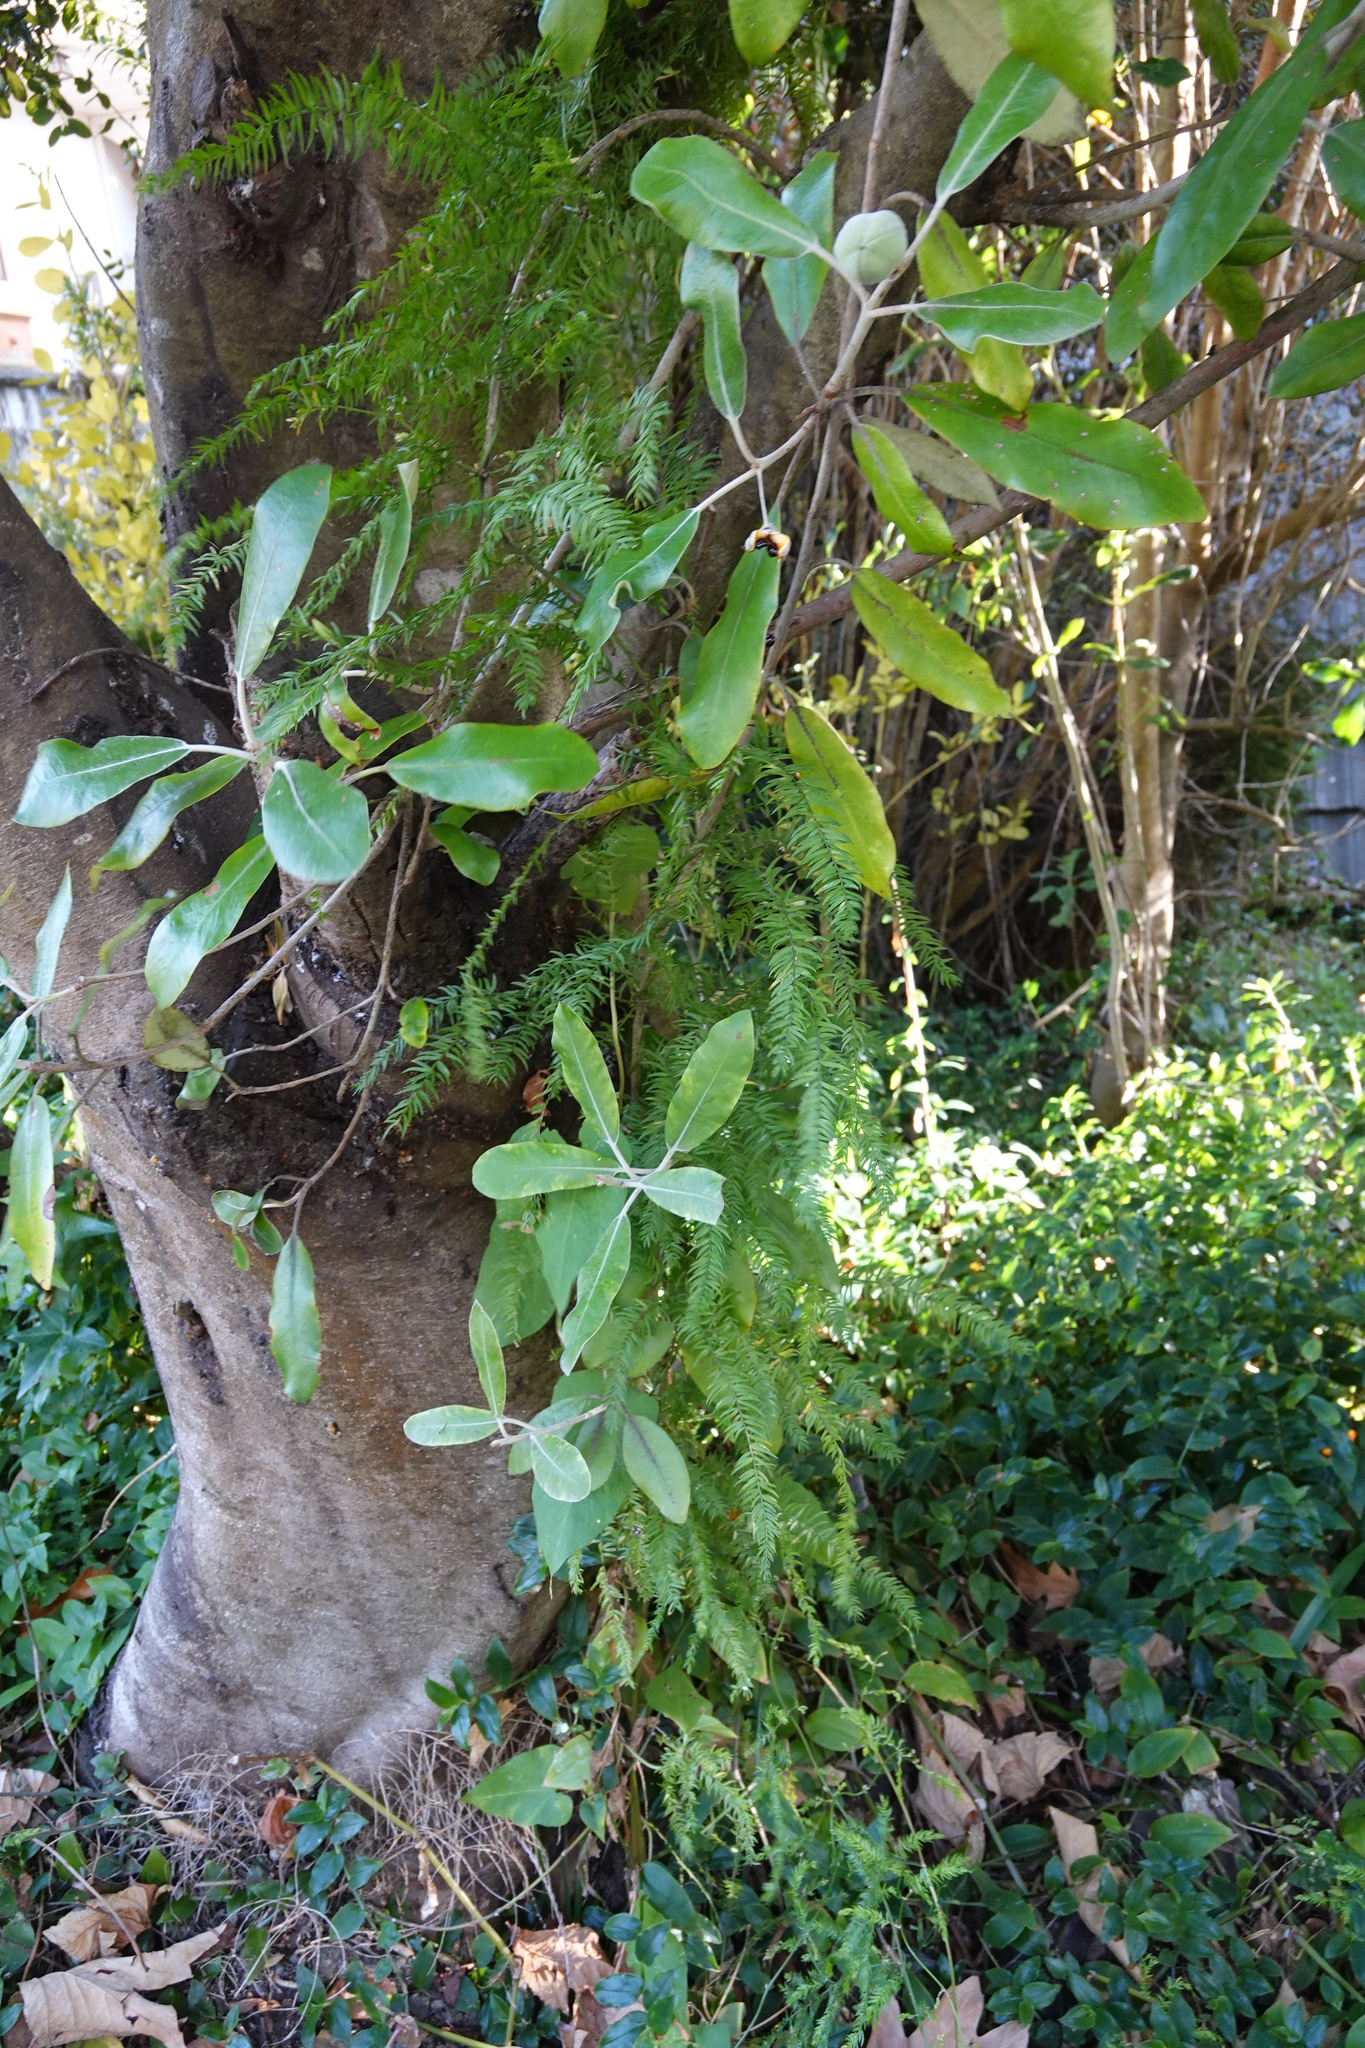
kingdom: Plantae
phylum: Tracheophyta
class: Liliopsida
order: Asparagales
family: Asparagaceae
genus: Asparagus
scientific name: Asparagus scandens
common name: Asparagus-fern
